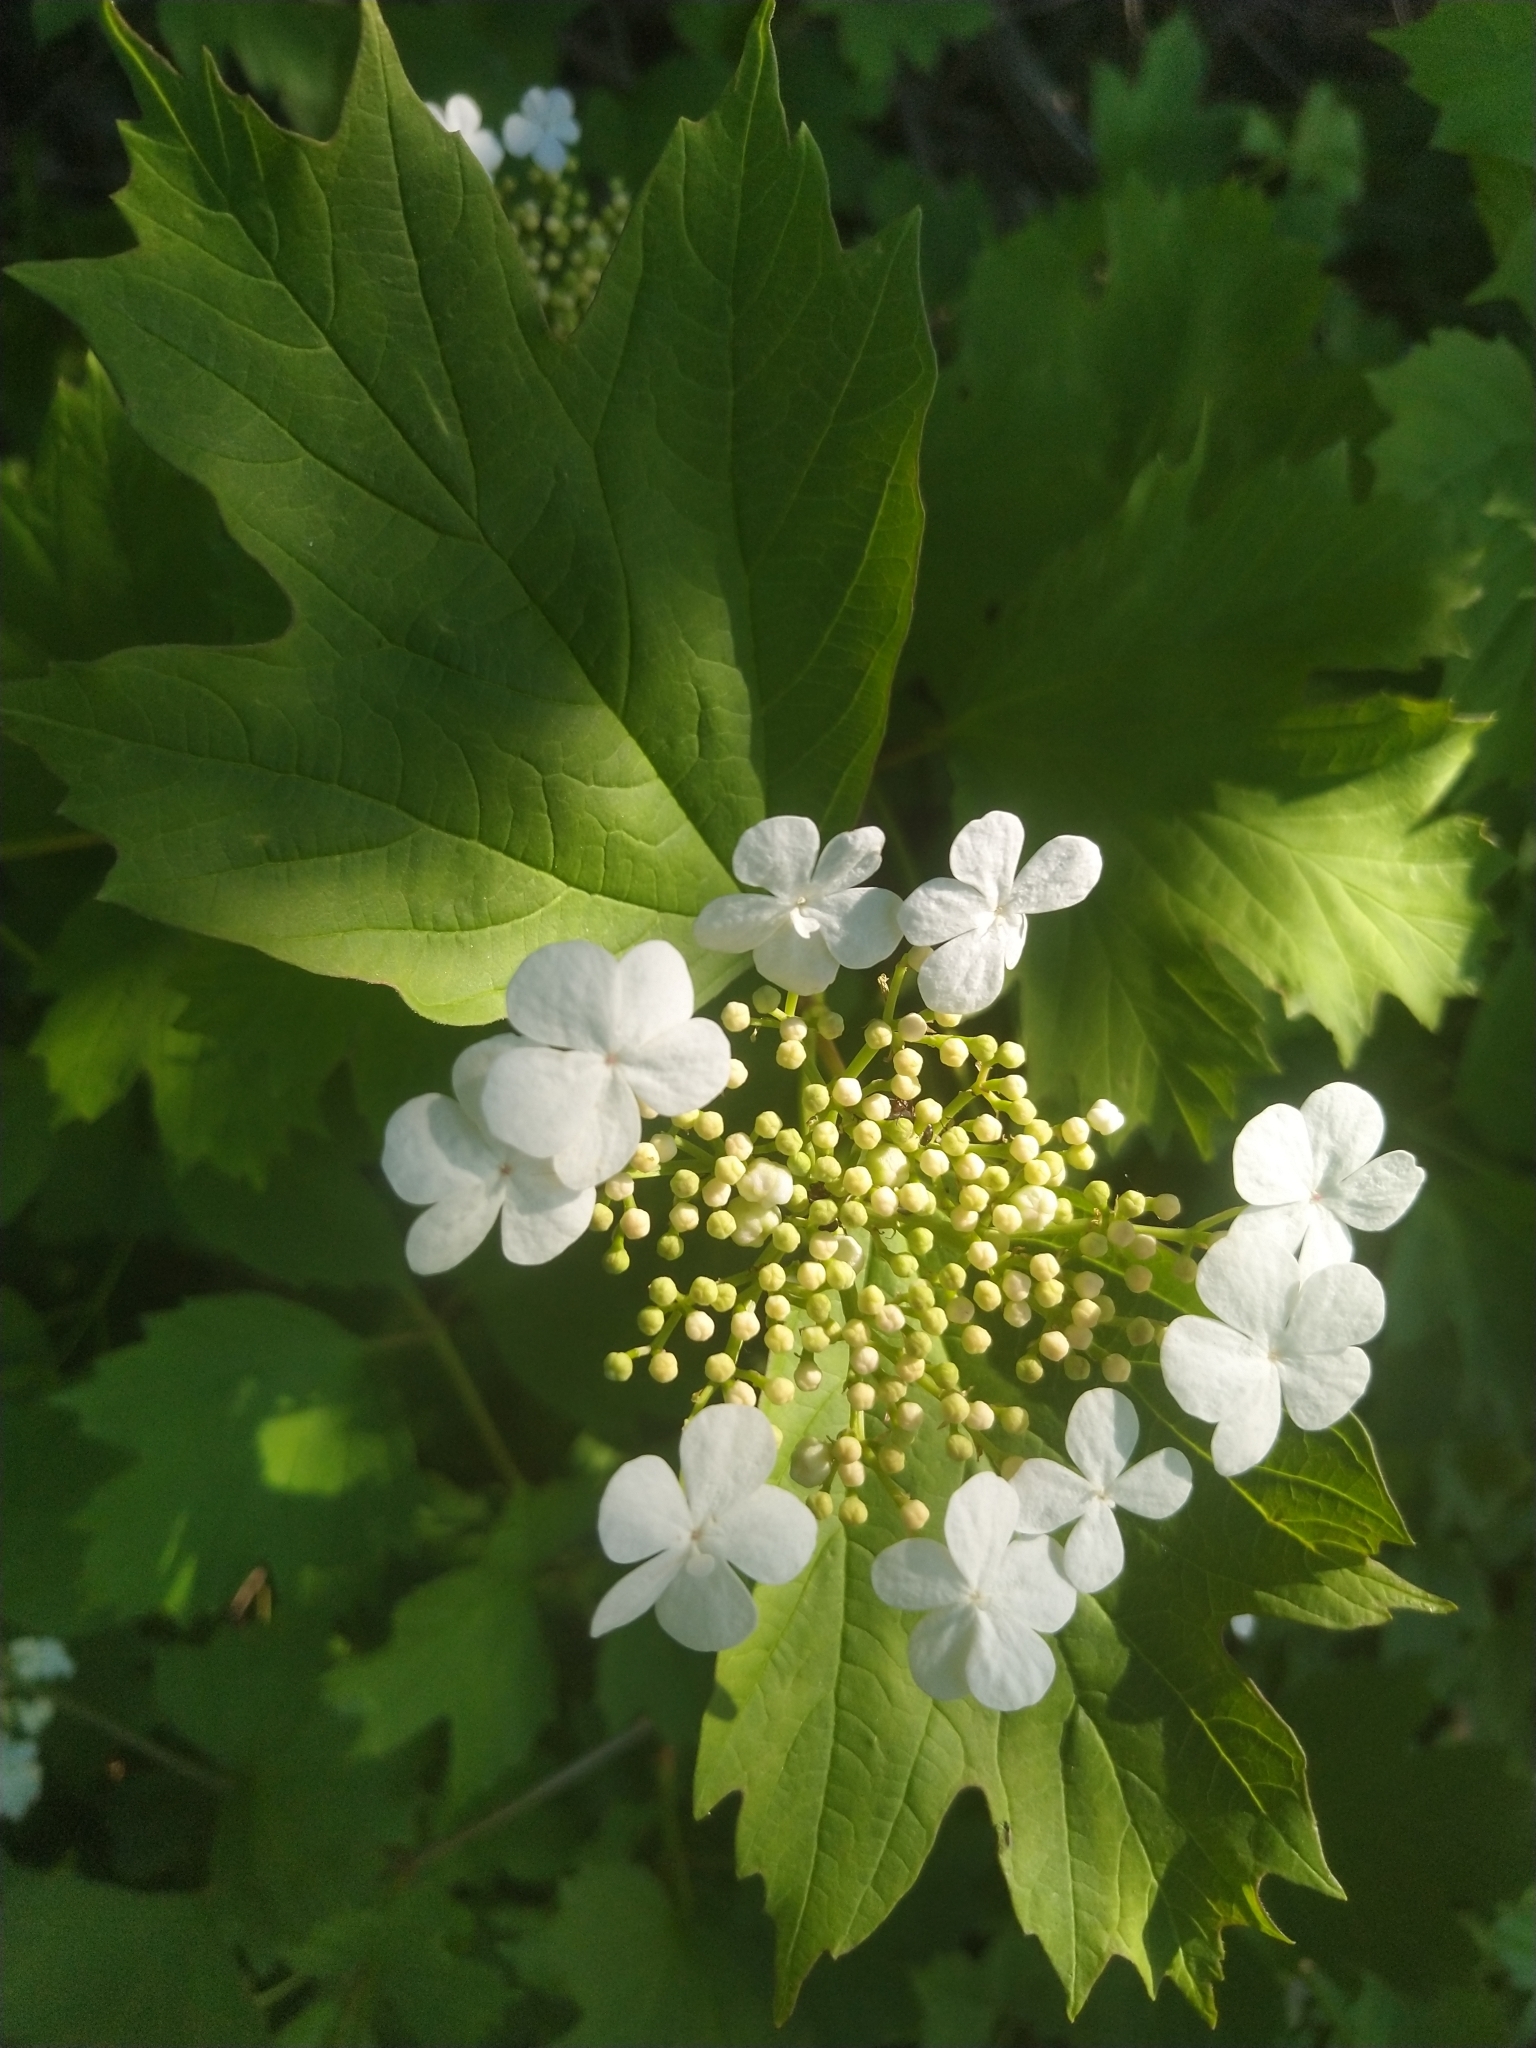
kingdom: Plantae
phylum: Tracheophyta
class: Magnoliopsida
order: Dipsacales
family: Viburnaceae
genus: Viburnum
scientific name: Viburnum opulus
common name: Guelder-rose
